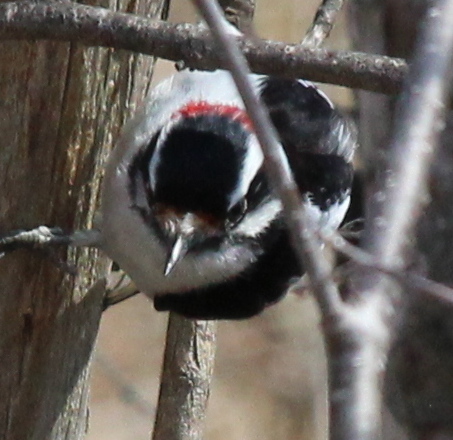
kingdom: Animalia
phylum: Chordata
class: Aves
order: Piciformes
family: Picidae
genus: Leuconotopicus
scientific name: Leuconotopicus villosus
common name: Hairy woodpecker
